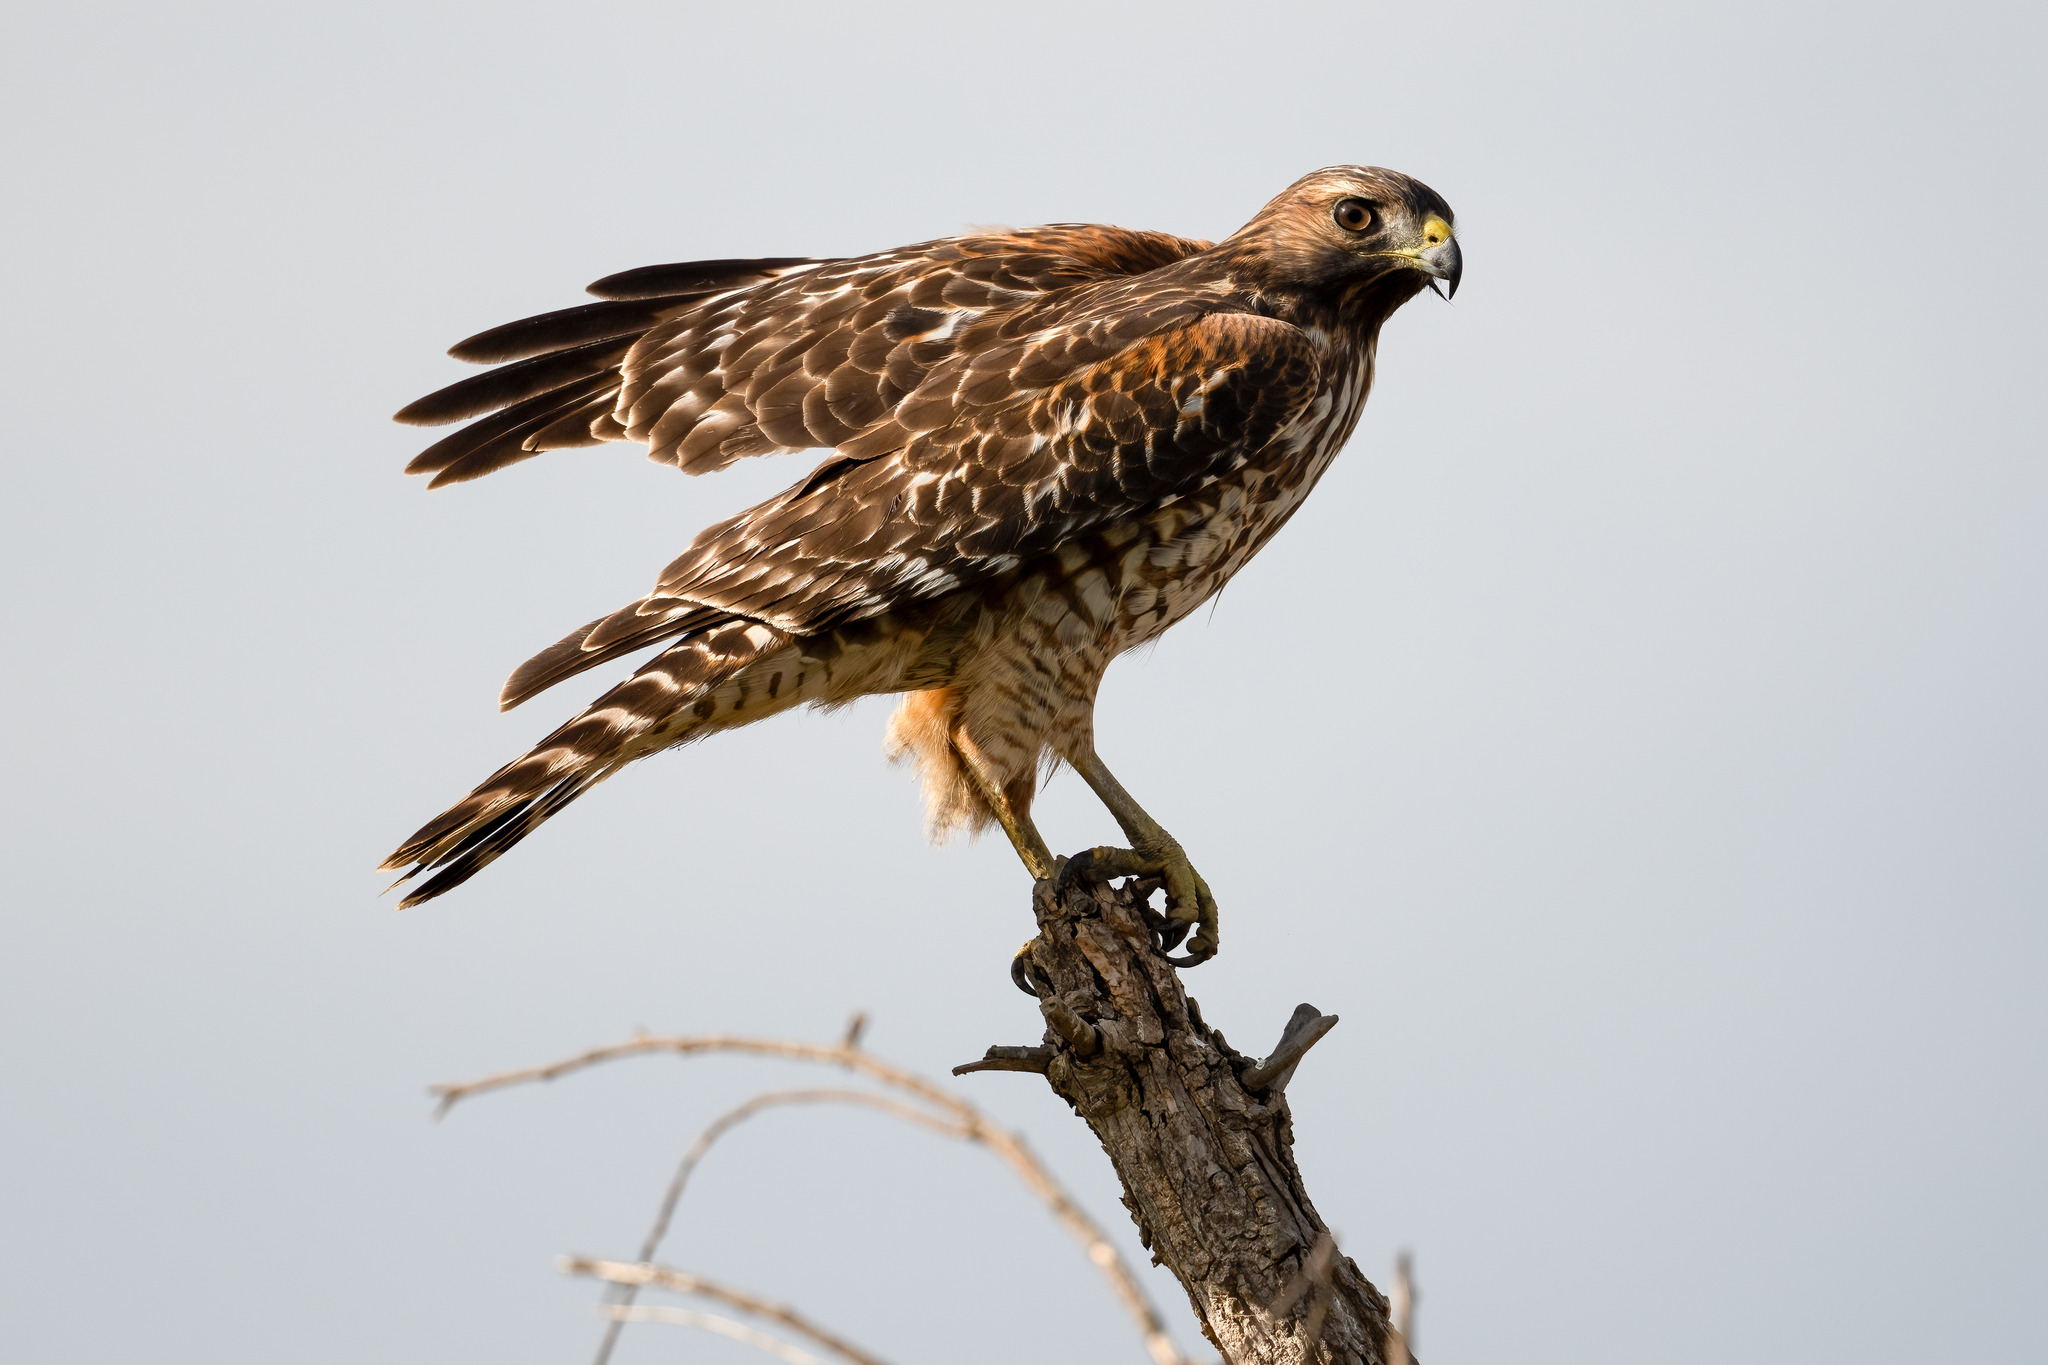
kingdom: Animalia
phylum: Chordata
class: Aves
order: Accipitriformes
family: Accipitridae
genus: Buteo
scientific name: Buteo lineatus
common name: Red-shouldered hawk
